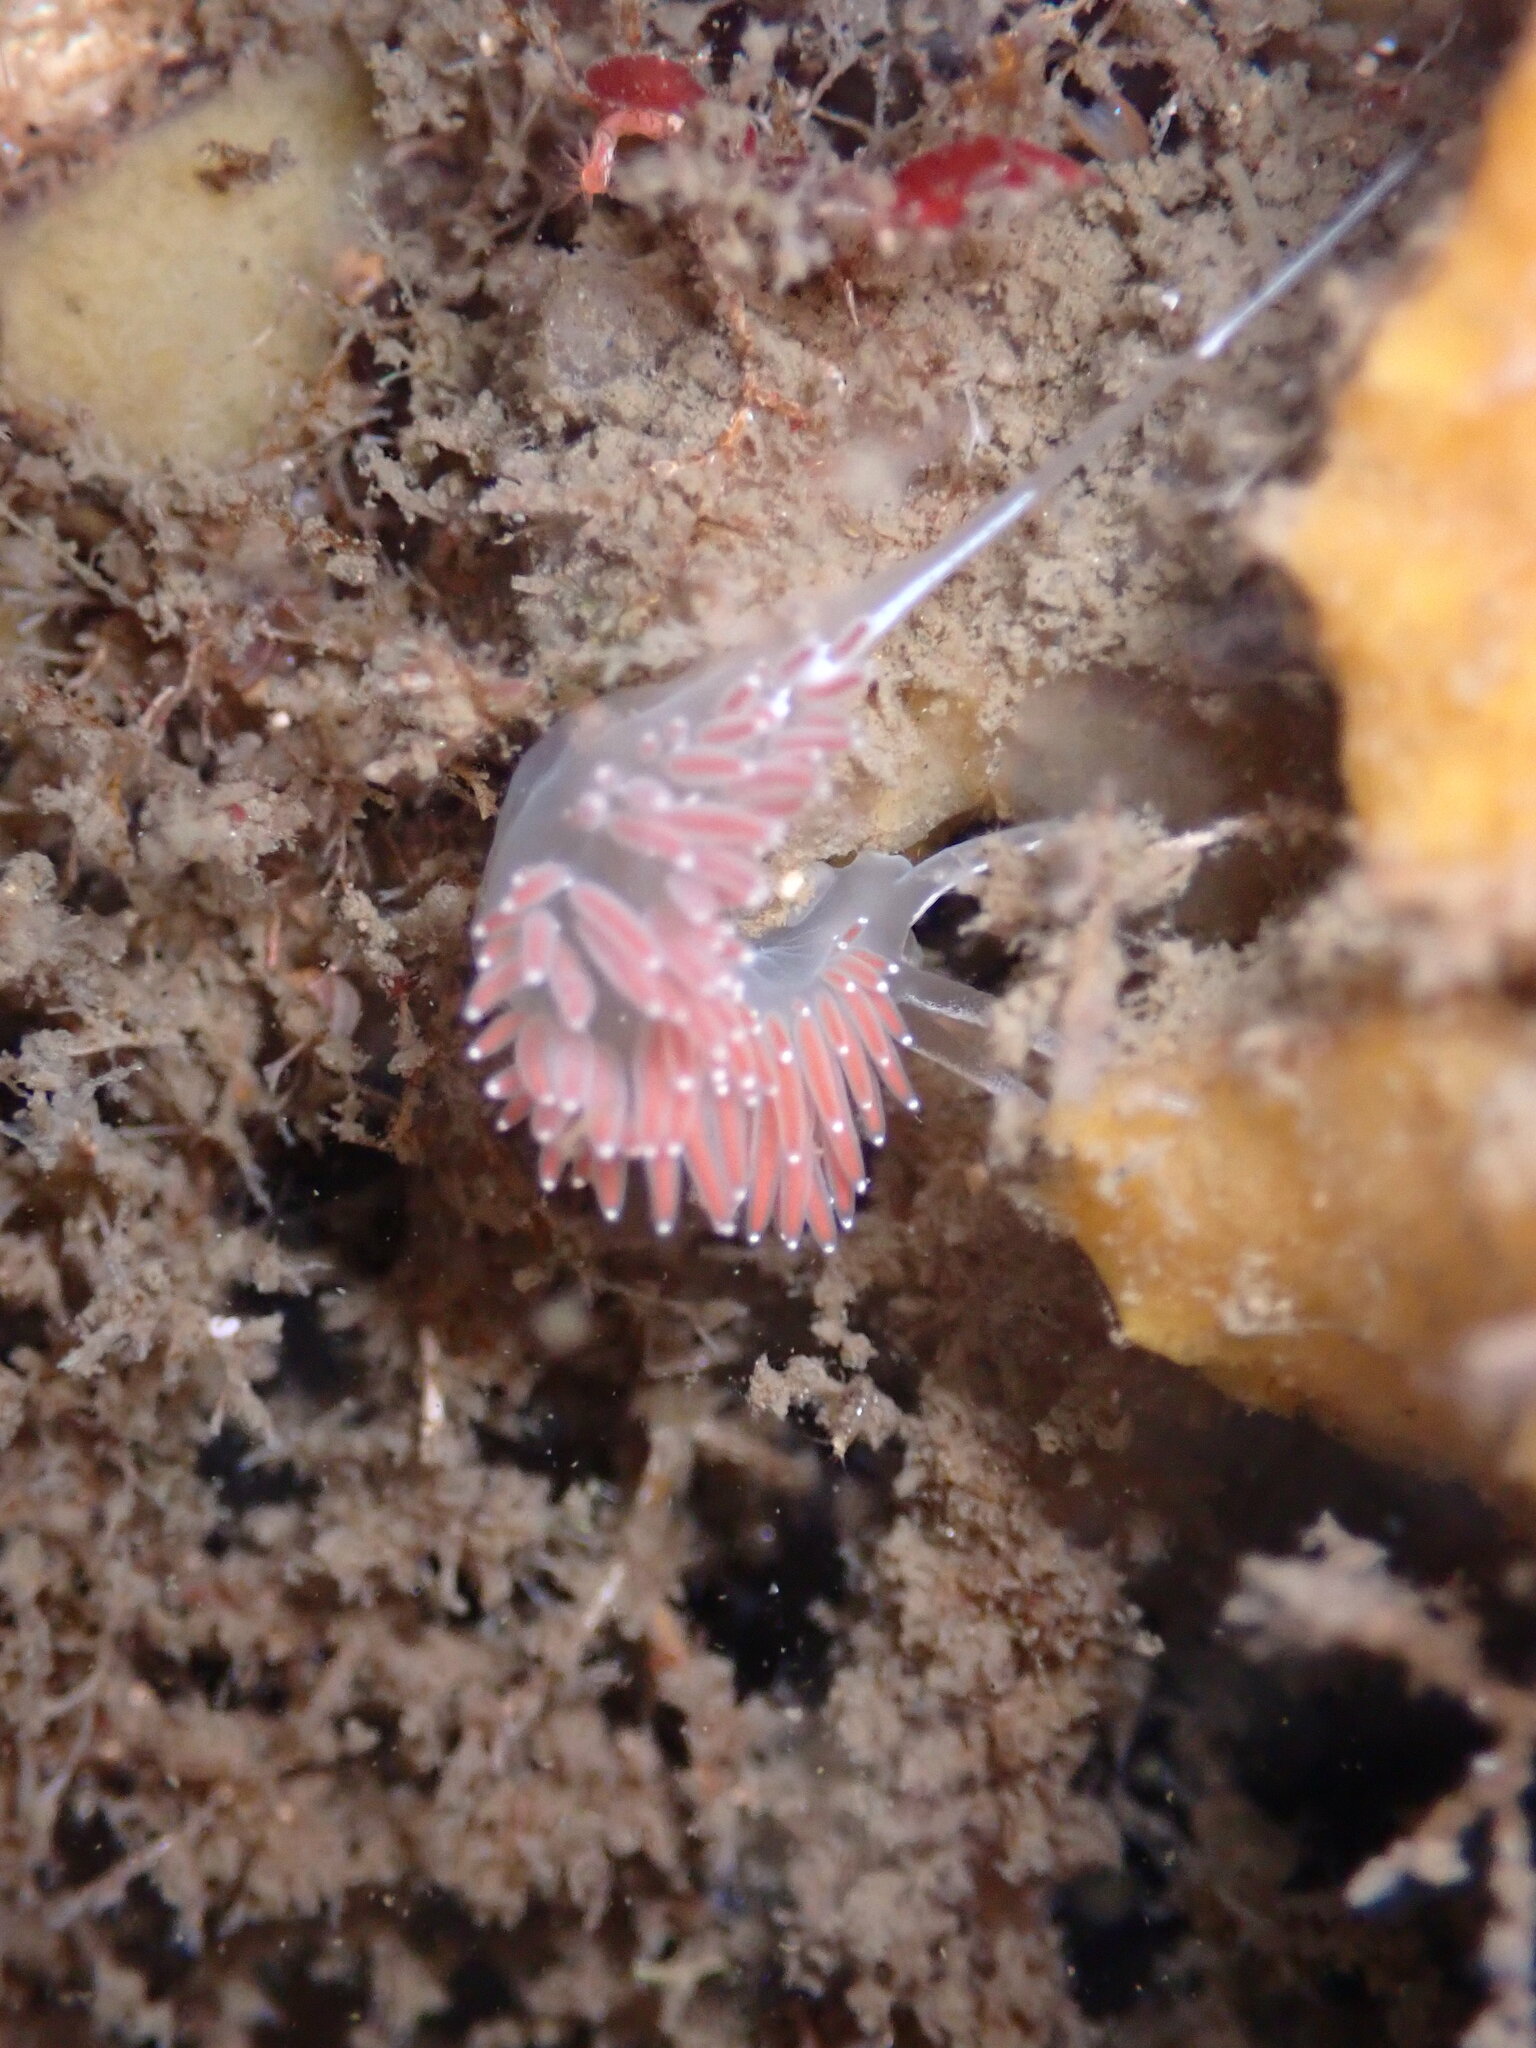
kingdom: Animalia
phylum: Mollusca
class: Gastropoda
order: Nudibranchia
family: Coryphellidae
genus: Coryphella
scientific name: Coryphella verrucosa
